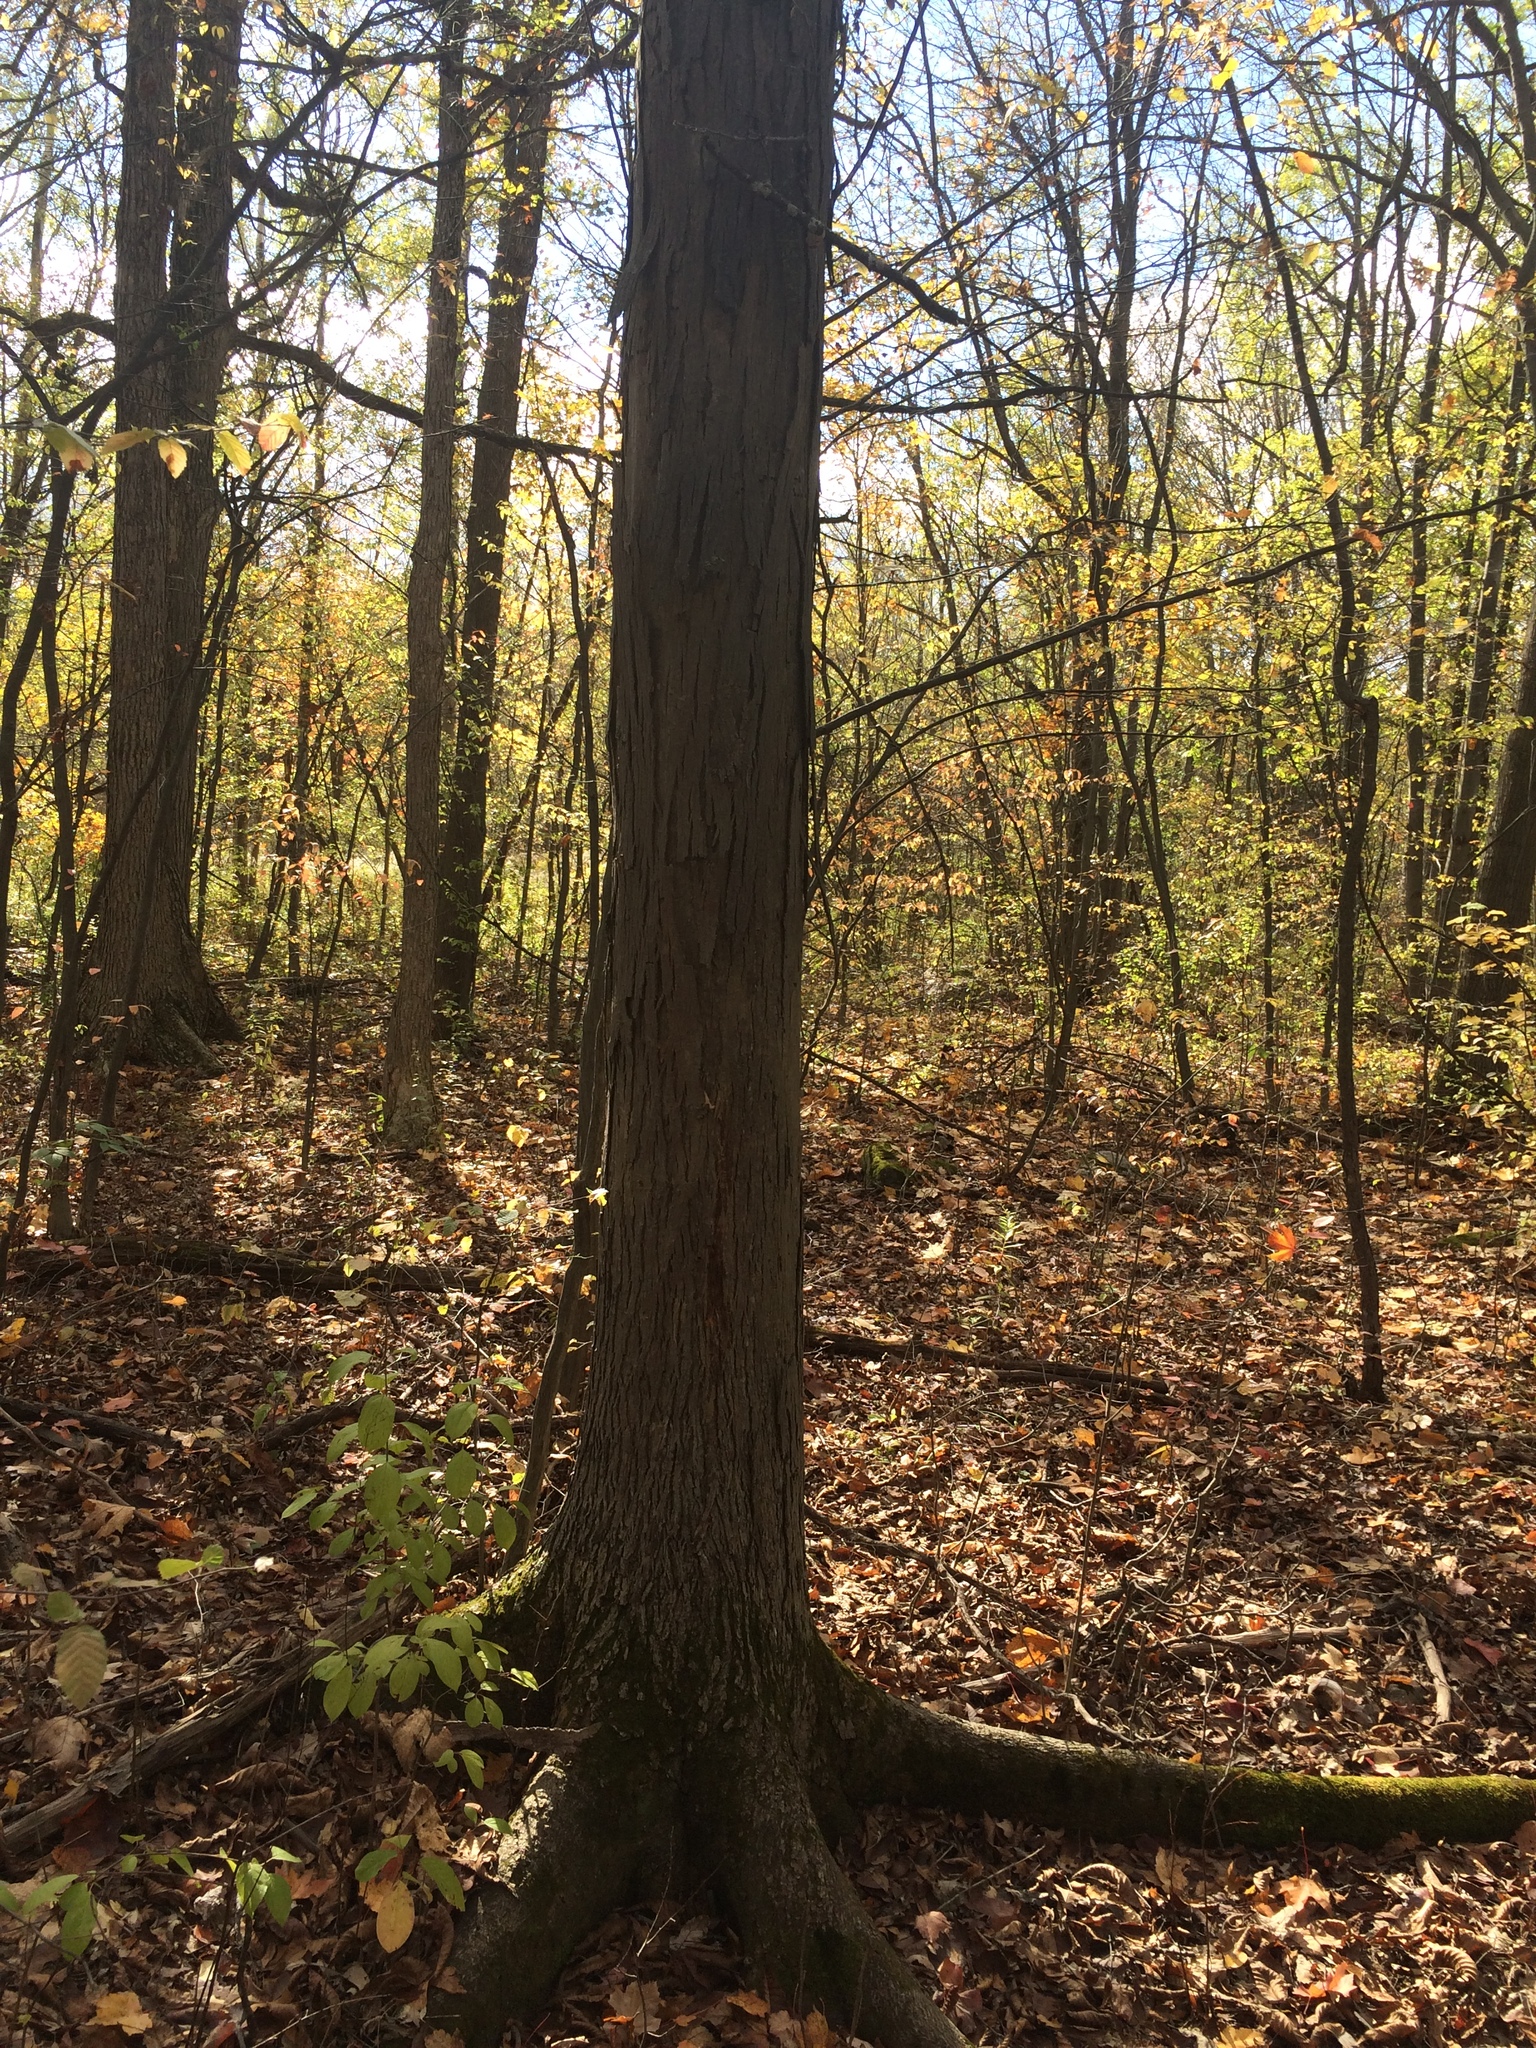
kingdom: Plantae
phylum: Tracheophyta
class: Magnoliopsida
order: Fagales
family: Juglandaceae
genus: Carya
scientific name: Carya ovata
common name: Shagbark hickory
